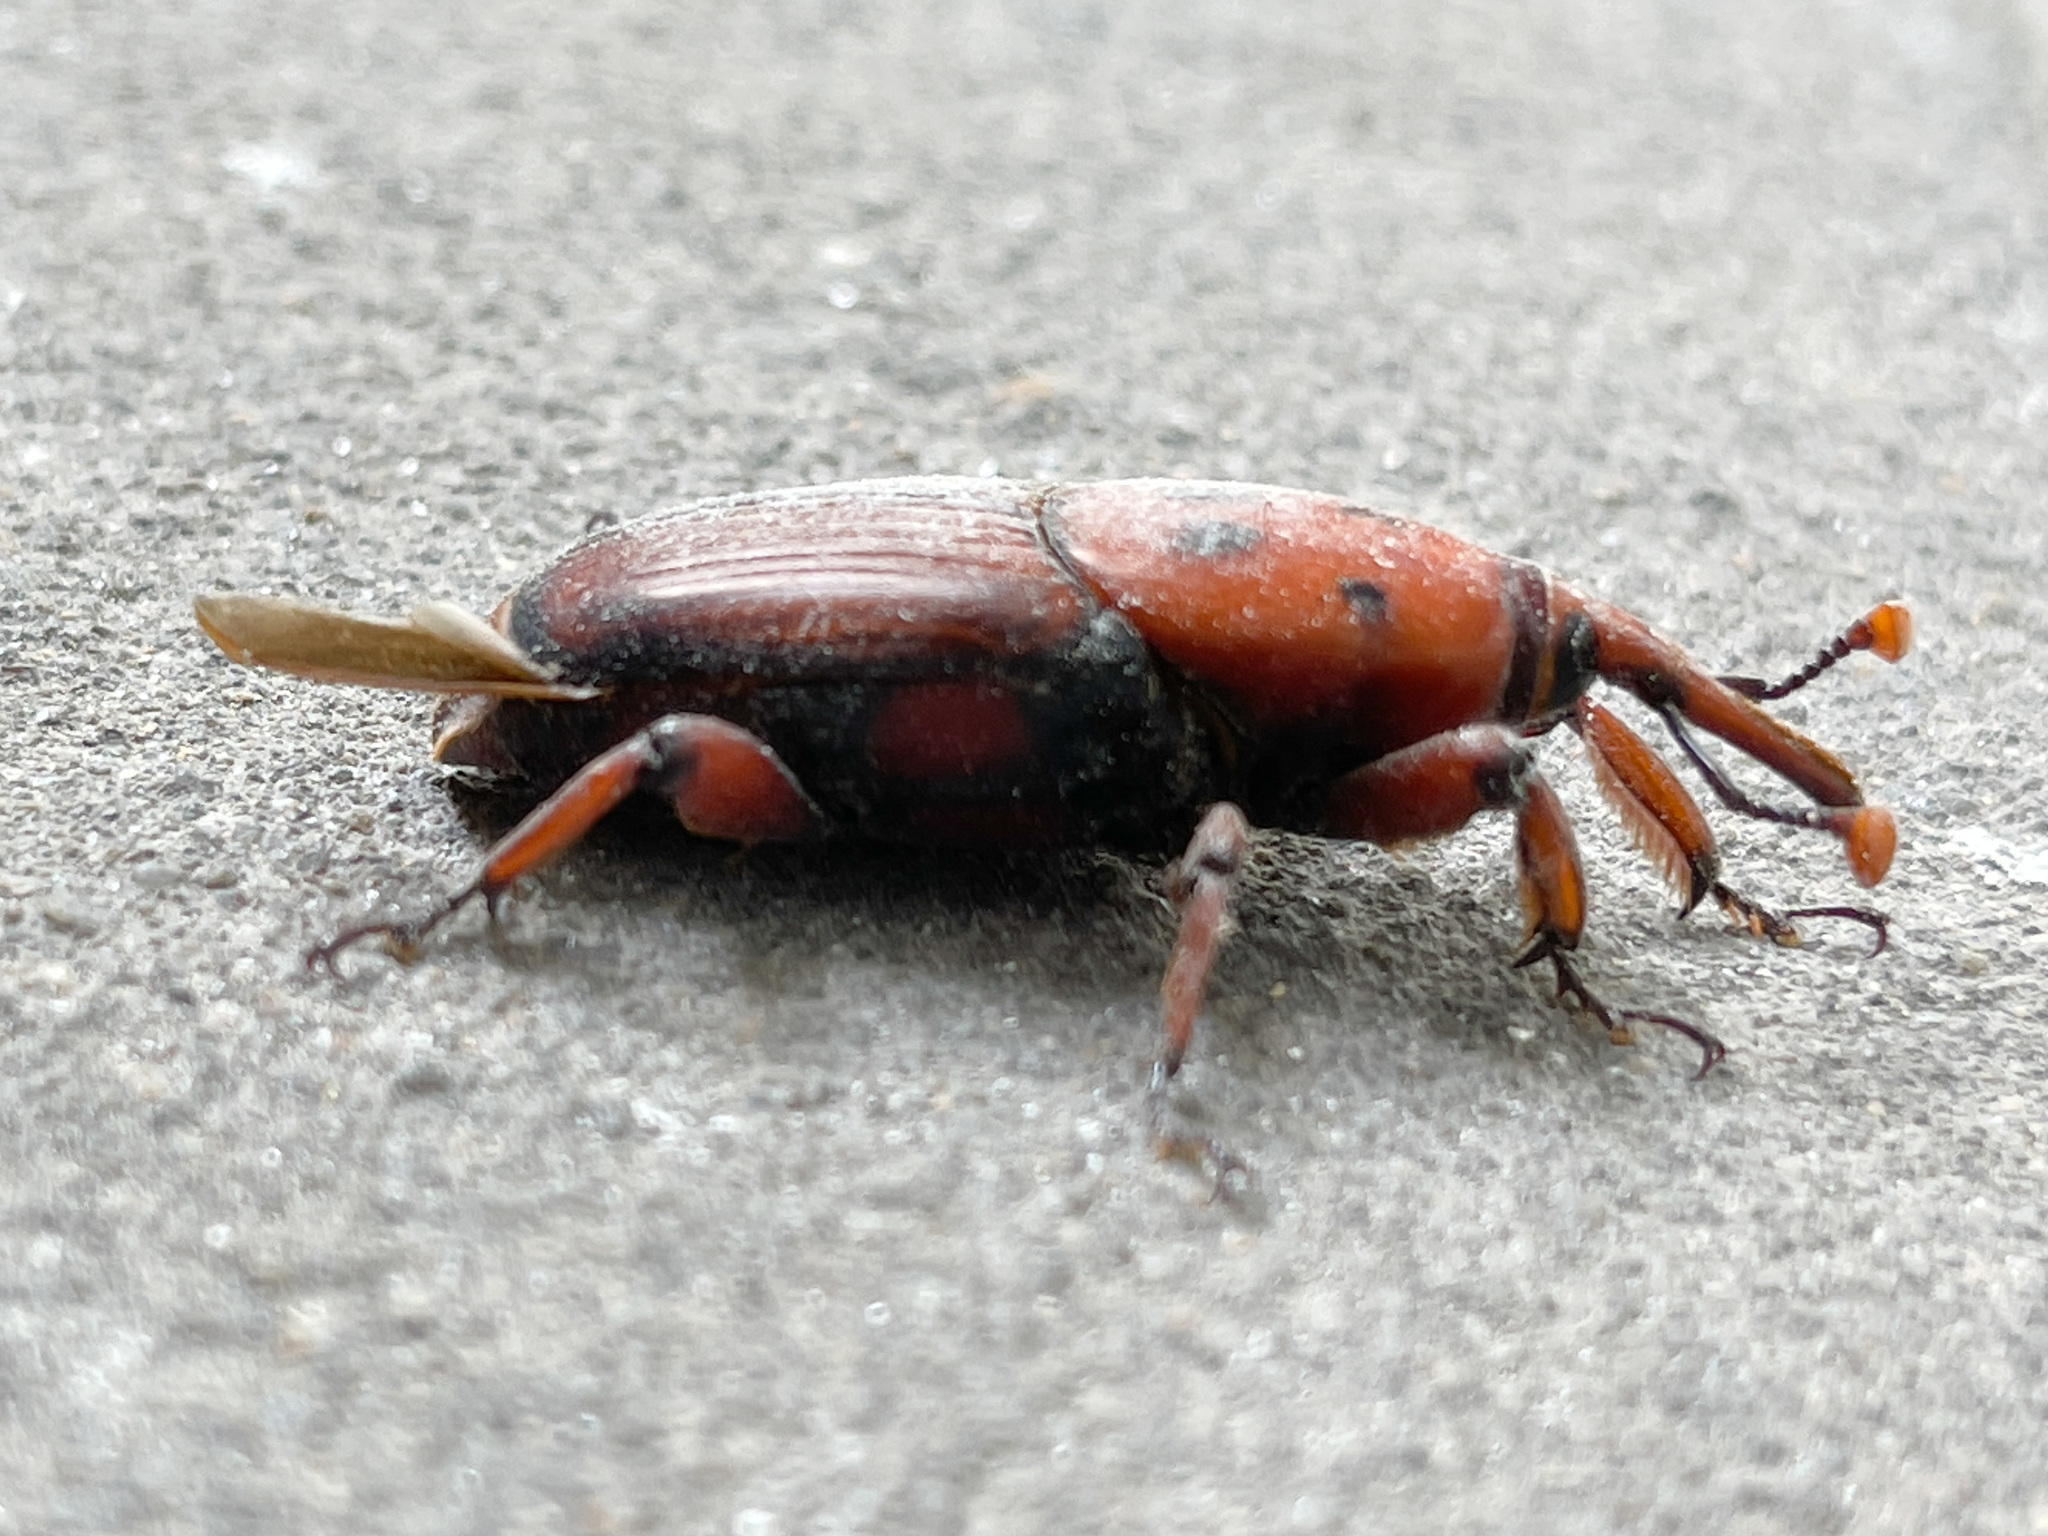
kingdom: Animalia
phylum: Arthropoda
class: Insecta
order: Coleoptera
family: Dryophthoridae
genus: Rhynchophorus
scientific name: Rhynchophorus ferrugineus
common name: Red palm weevil
